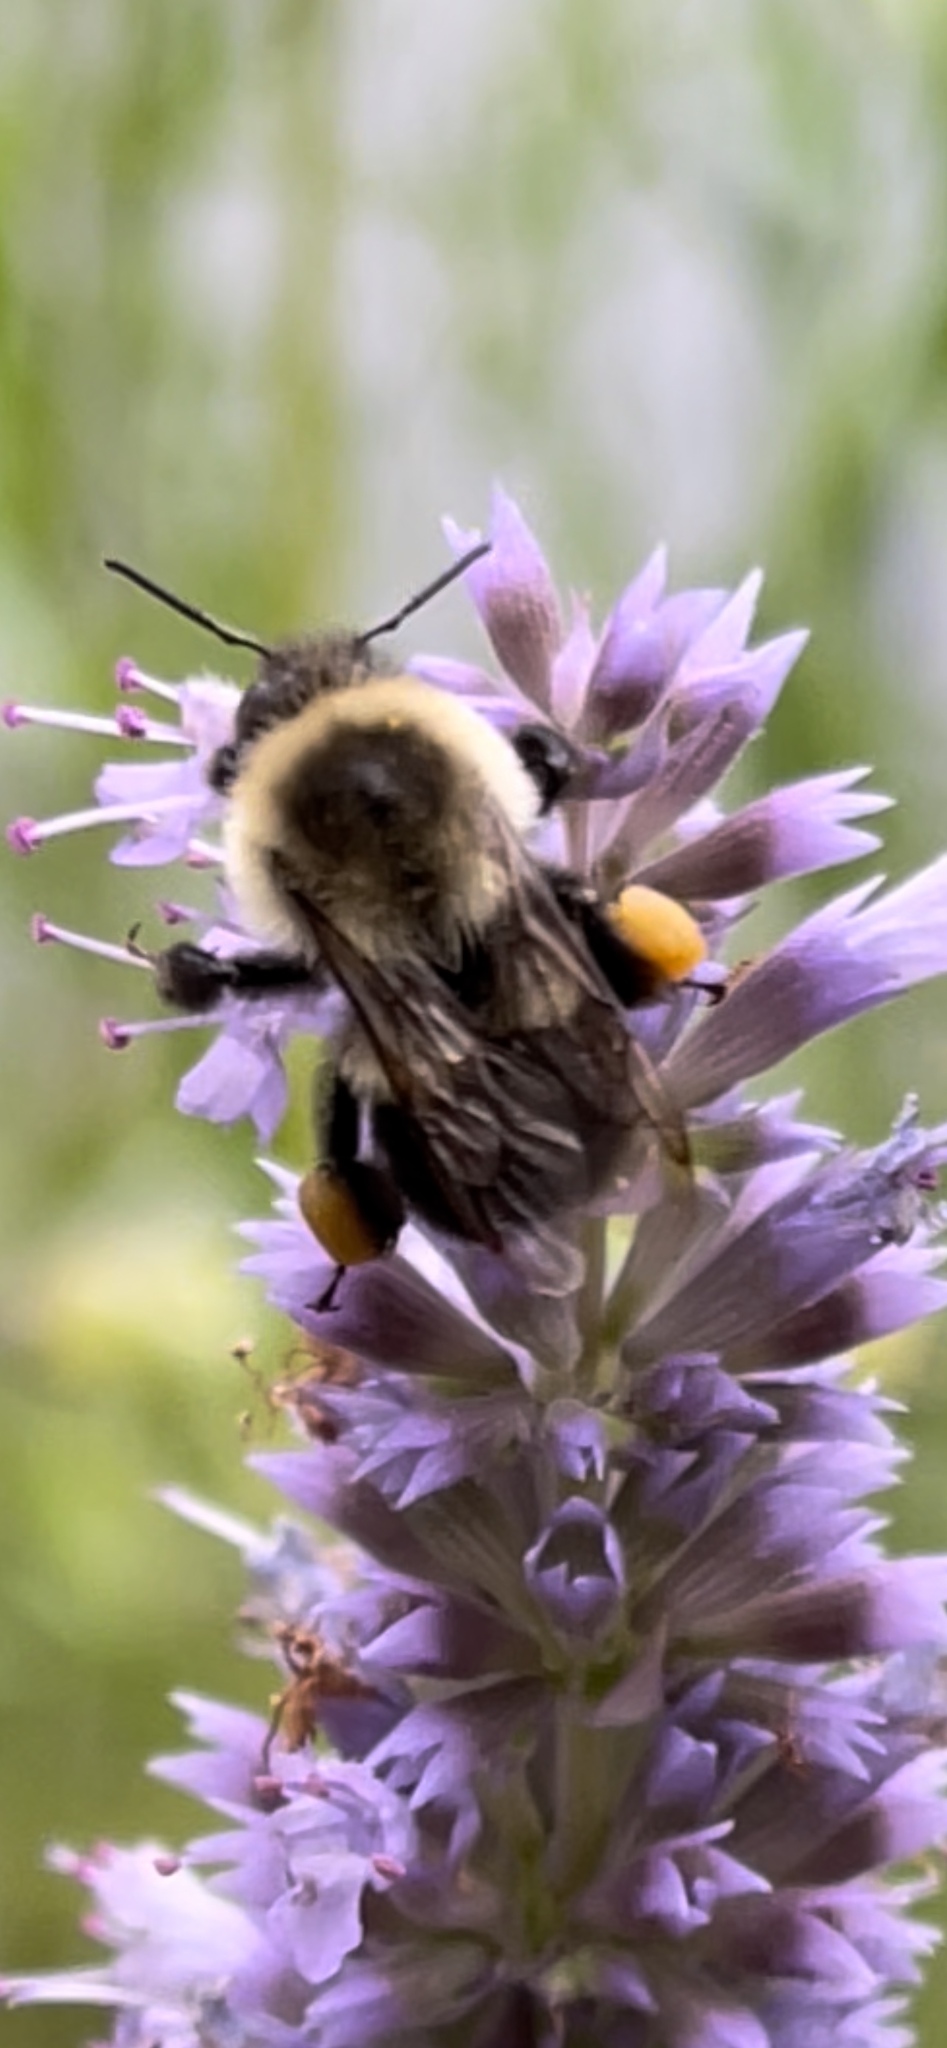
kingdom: Animalia
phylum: Arthropoda
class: Insecta
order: Hymenoptera
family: Apidae
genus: Bombus
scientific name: Bombus impatiens
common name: Common eastern bumble bee
